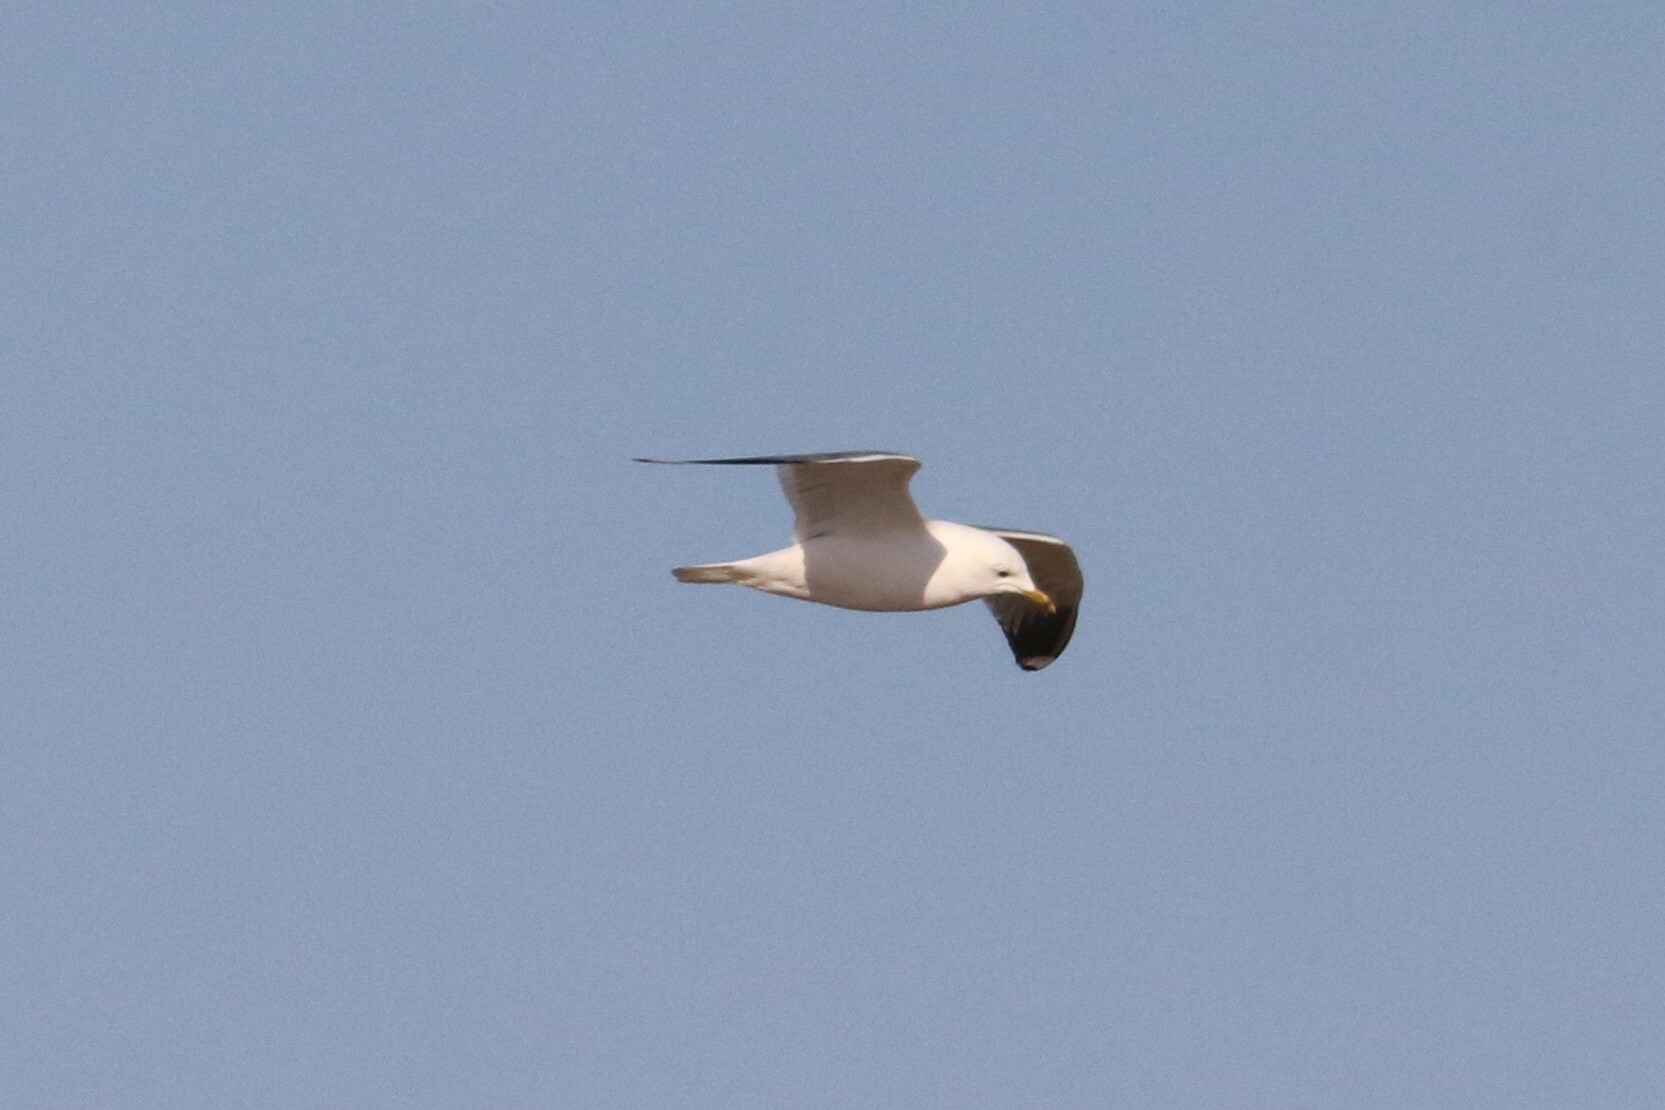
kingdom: Animalia
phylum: Chordata
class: Aves
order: Charadriiformes
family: Laridae
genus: Larus
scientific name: Larus canus
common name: Mew gull
